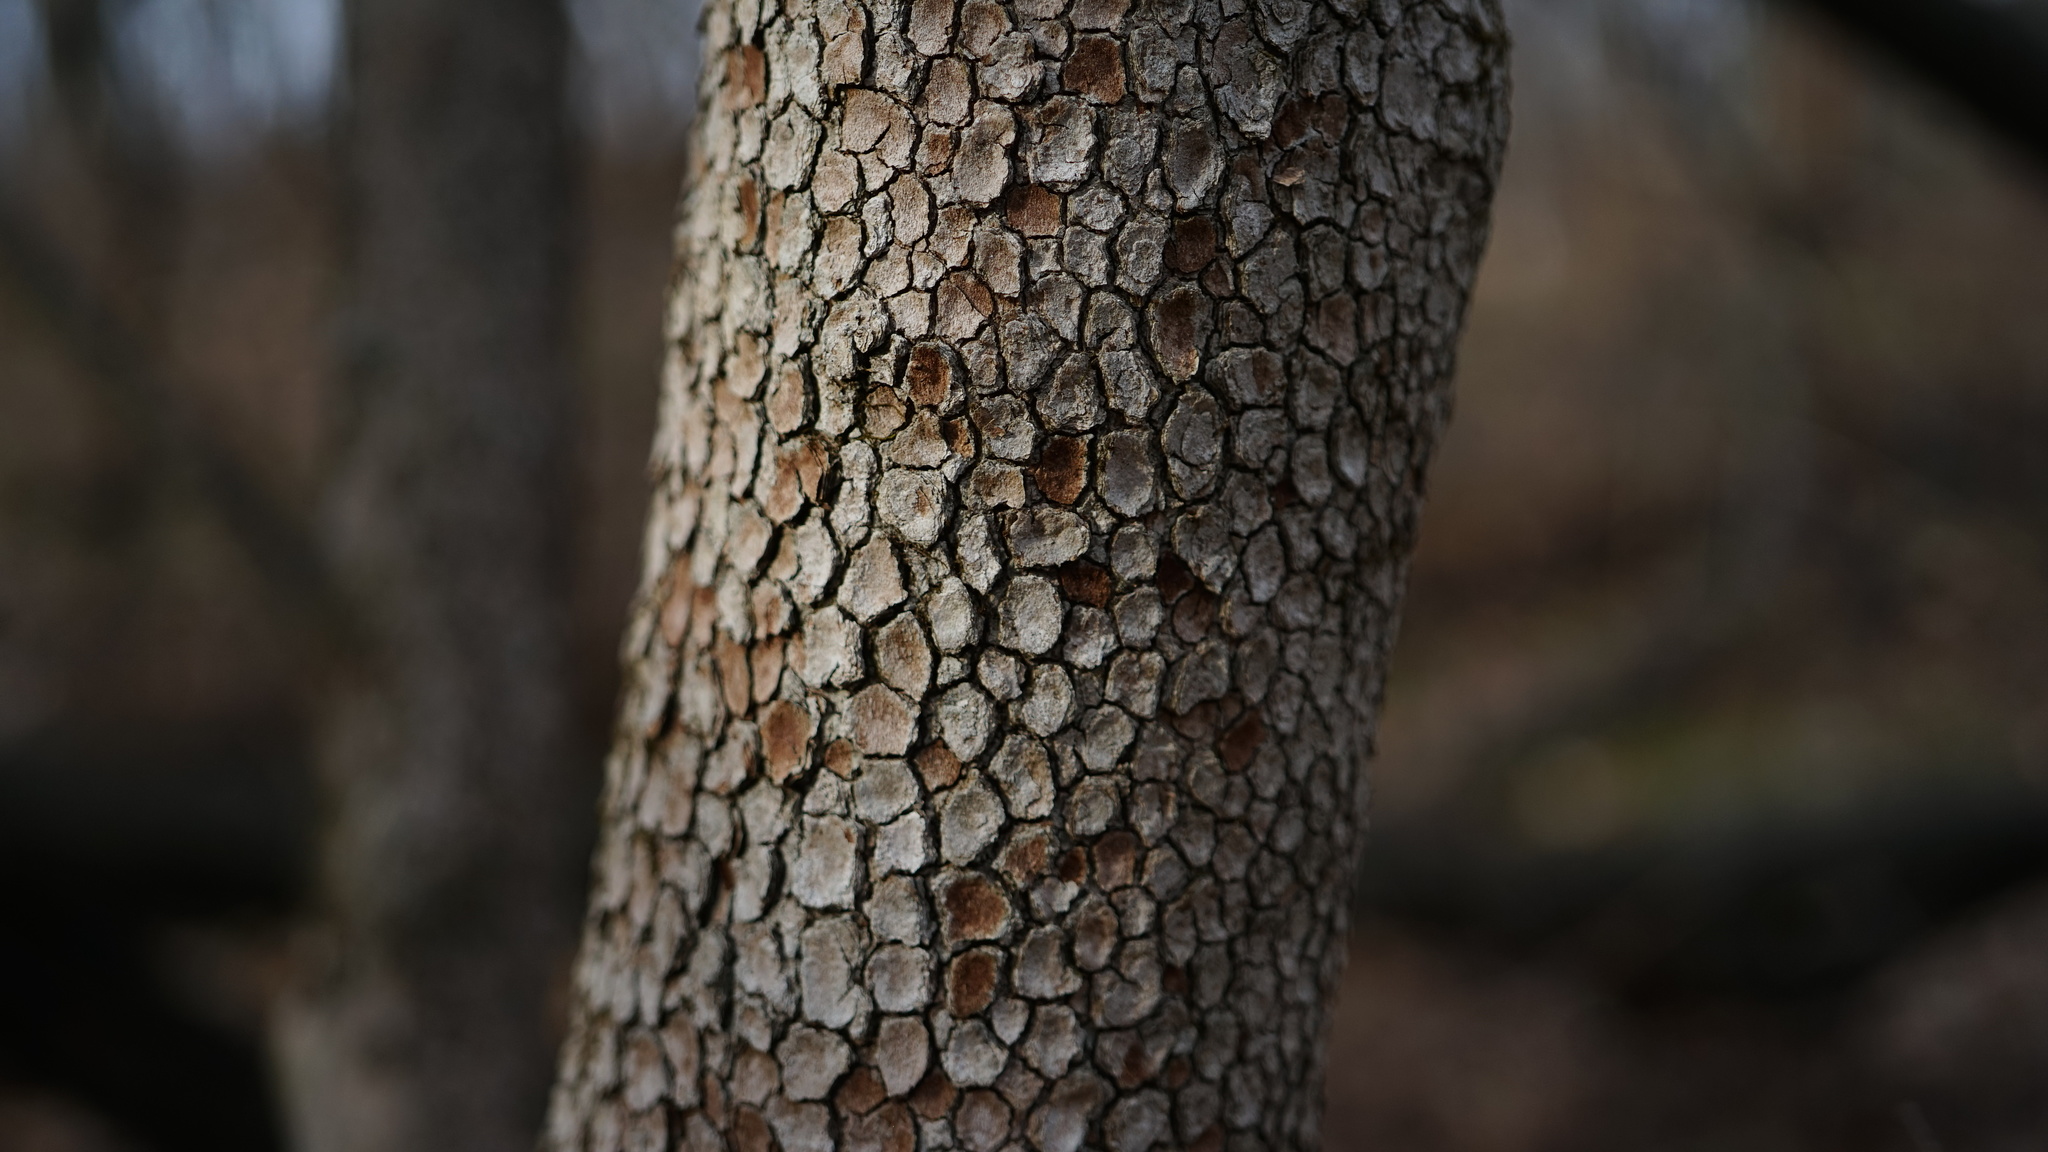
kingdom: Plantae
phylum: Tracheophyta
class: Magnoliopsida
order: Cornales
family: Cornaceae
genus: Cornus
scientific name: Cornus florida
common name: Flowering dogwood
